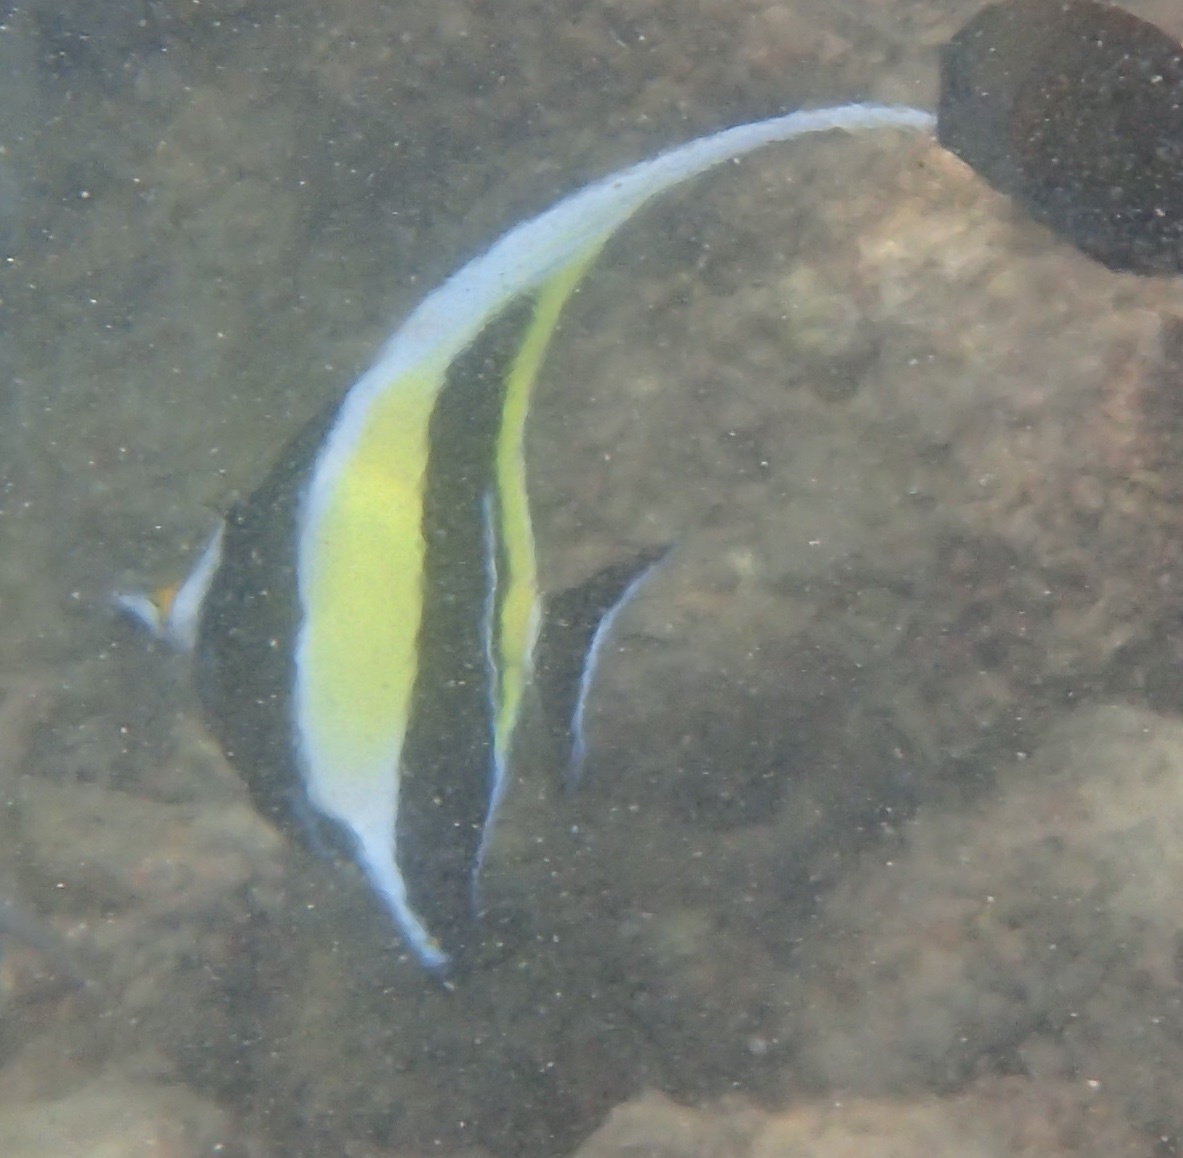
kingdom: Animalia
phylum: Chordata
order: Perciformes
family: Zanclidae
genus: Zanclus
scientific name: Zanclus cornutus
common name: Moorish idol
